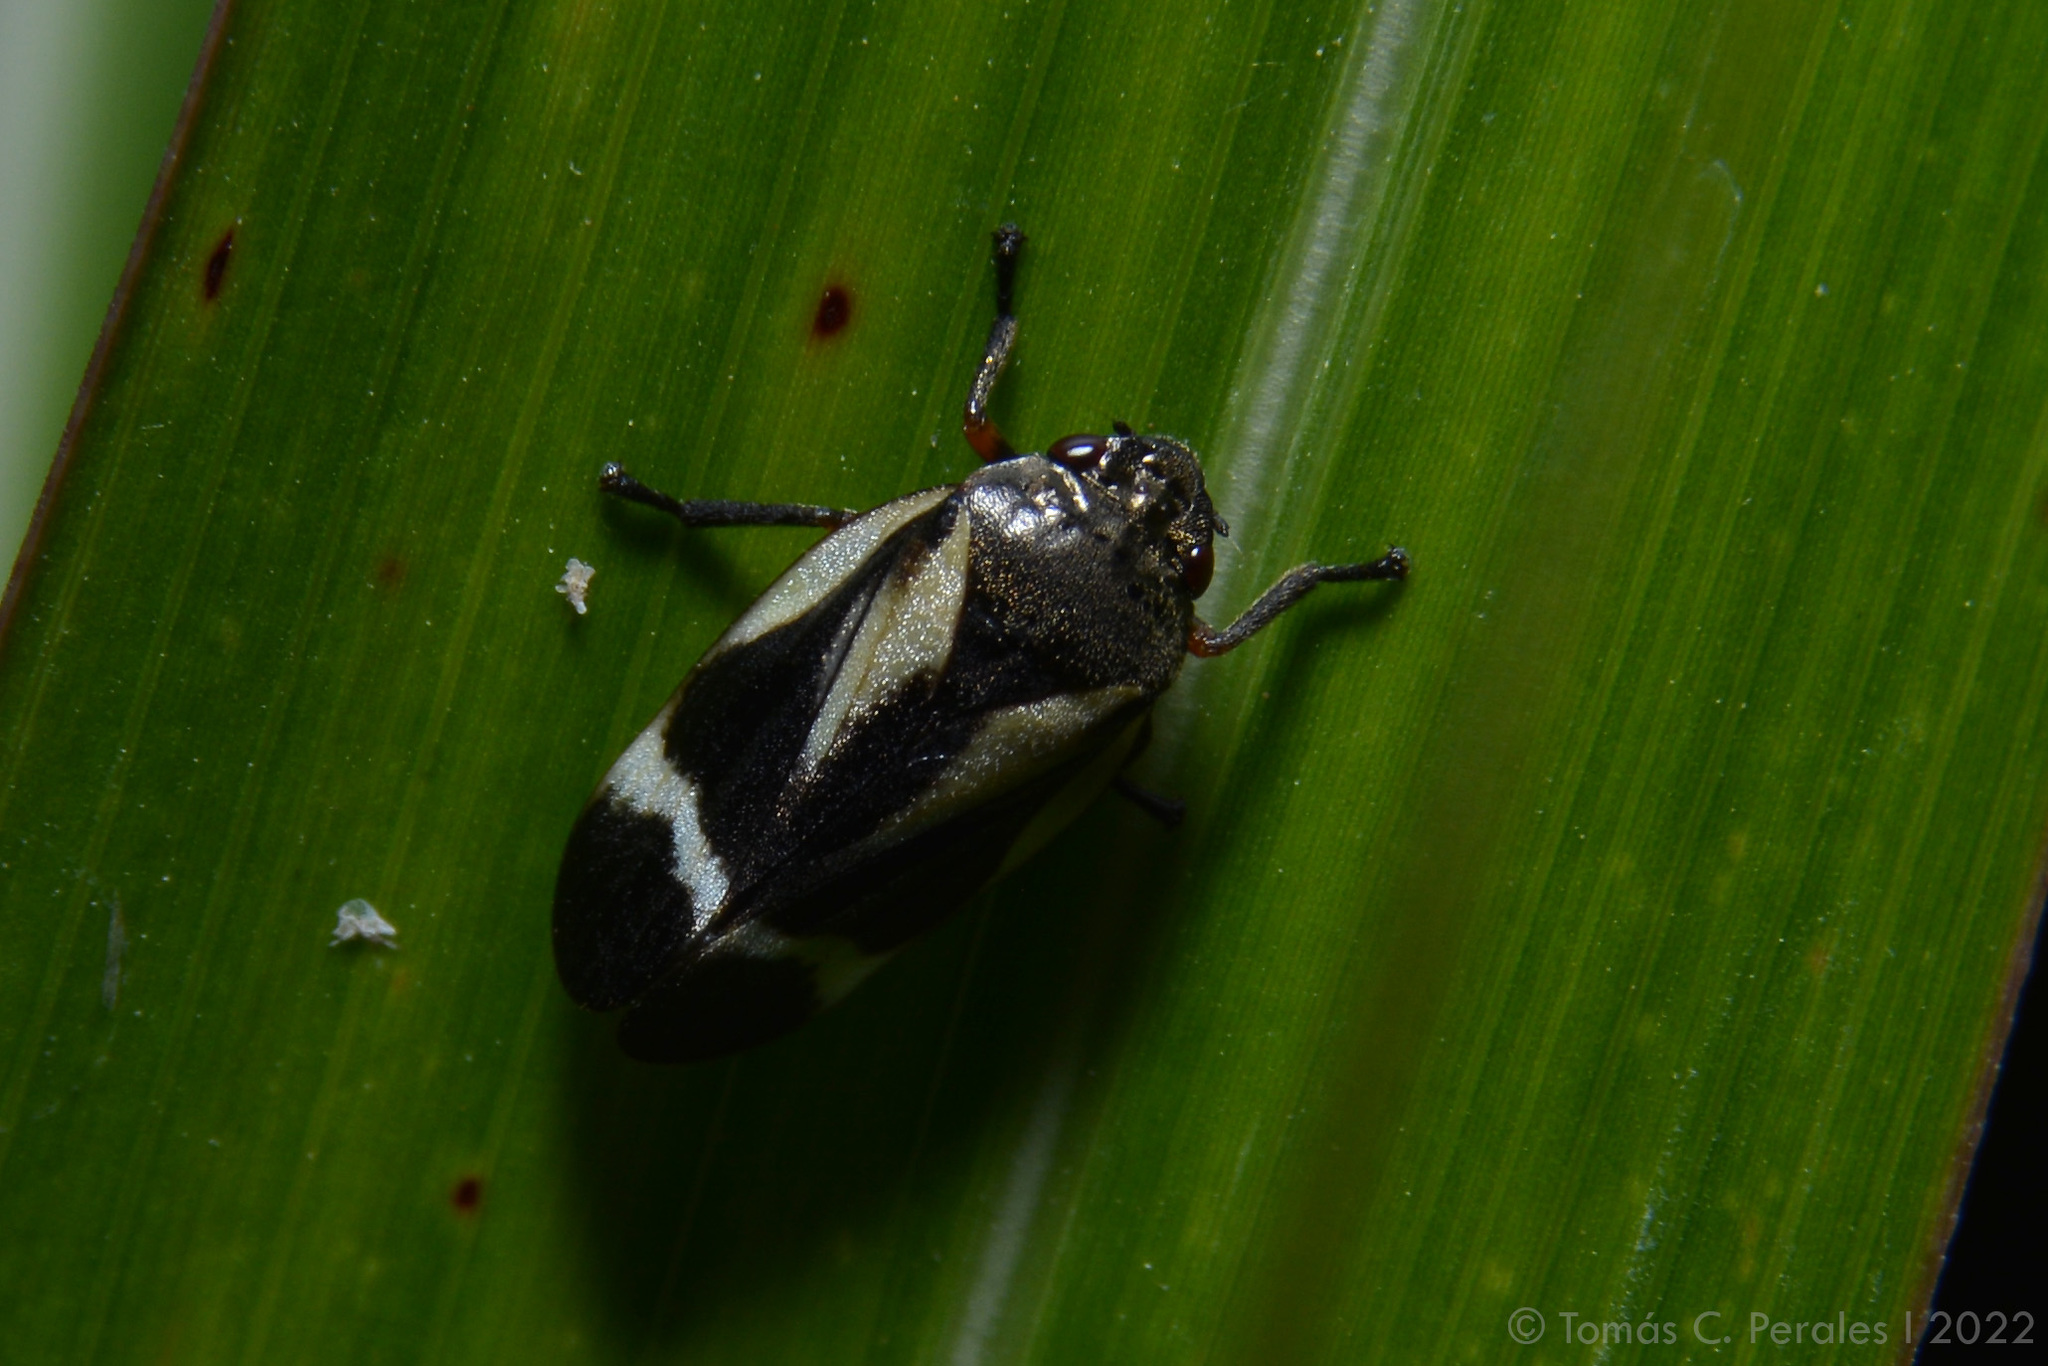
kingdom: Animalia
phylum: Arthropoda
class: Insecta
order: Hemiptera
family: Cercopidae
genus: Notozulia
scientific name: Notozulia entreriana
